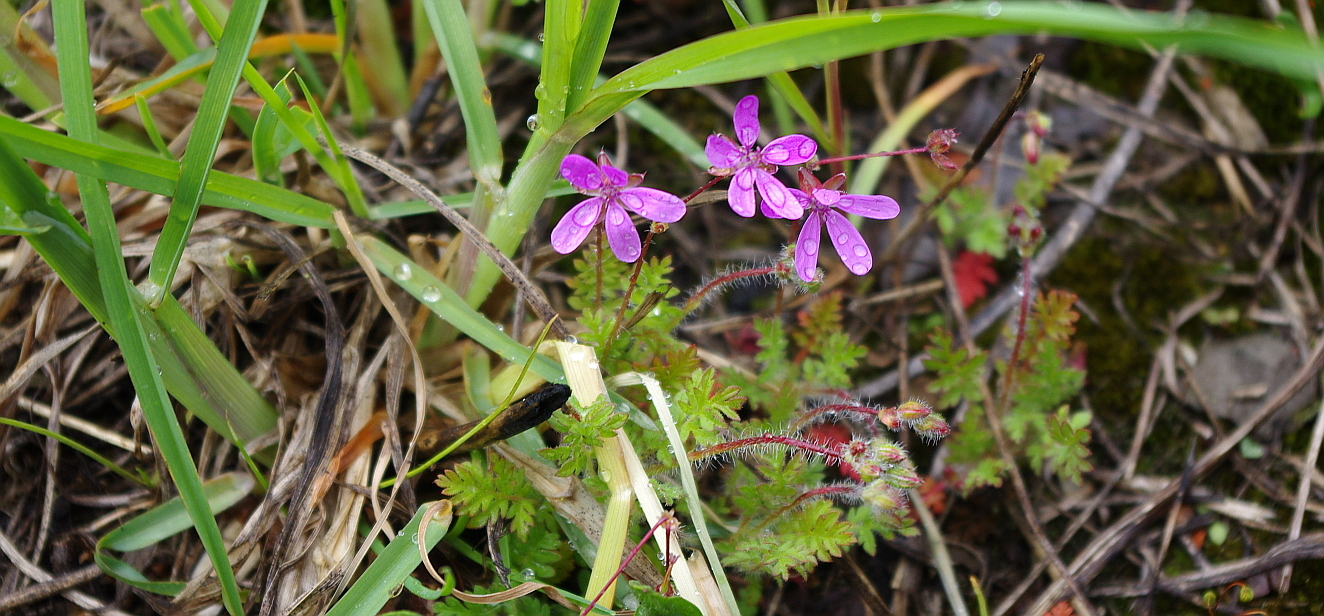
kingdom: Plantae
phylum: Tracheophyta
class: Magnoliopsida
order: Geraniales
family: Geraniaceae
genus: Erodium
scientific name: Erodium cicutarium
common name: Common stork's-bill
